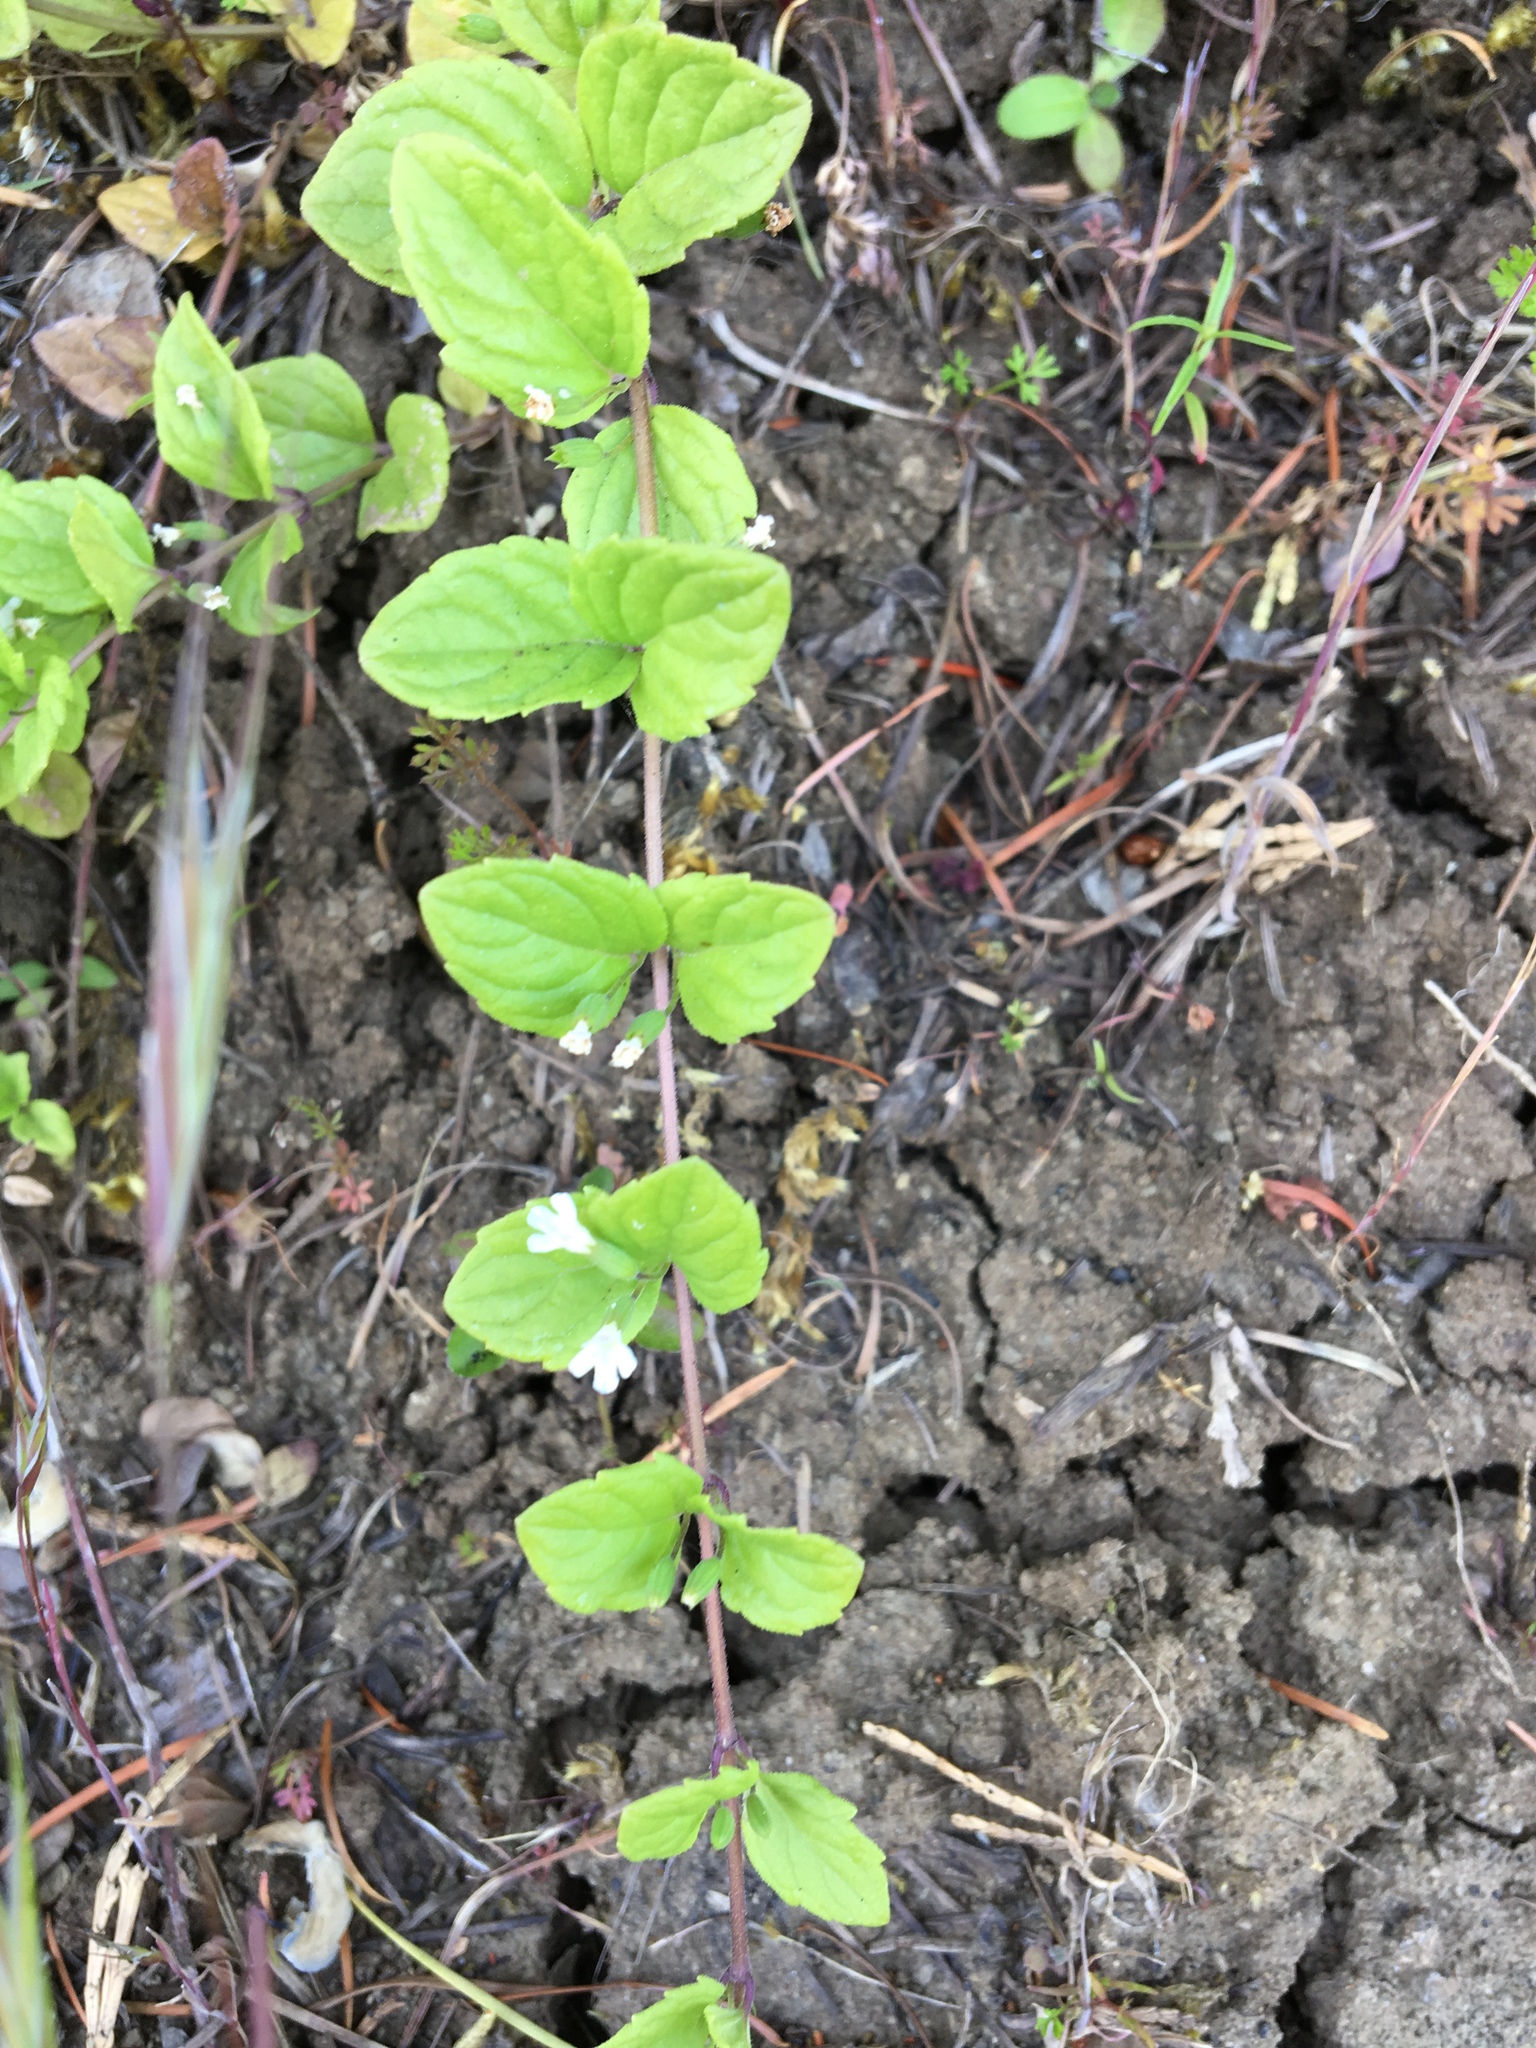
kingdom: Plantae
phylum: Tracheophyta
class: Magnoliopsida
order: Lamiales
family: Lamiaceae
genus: Micromeria
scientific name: Micromeria douglasii
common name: Yerba buena
